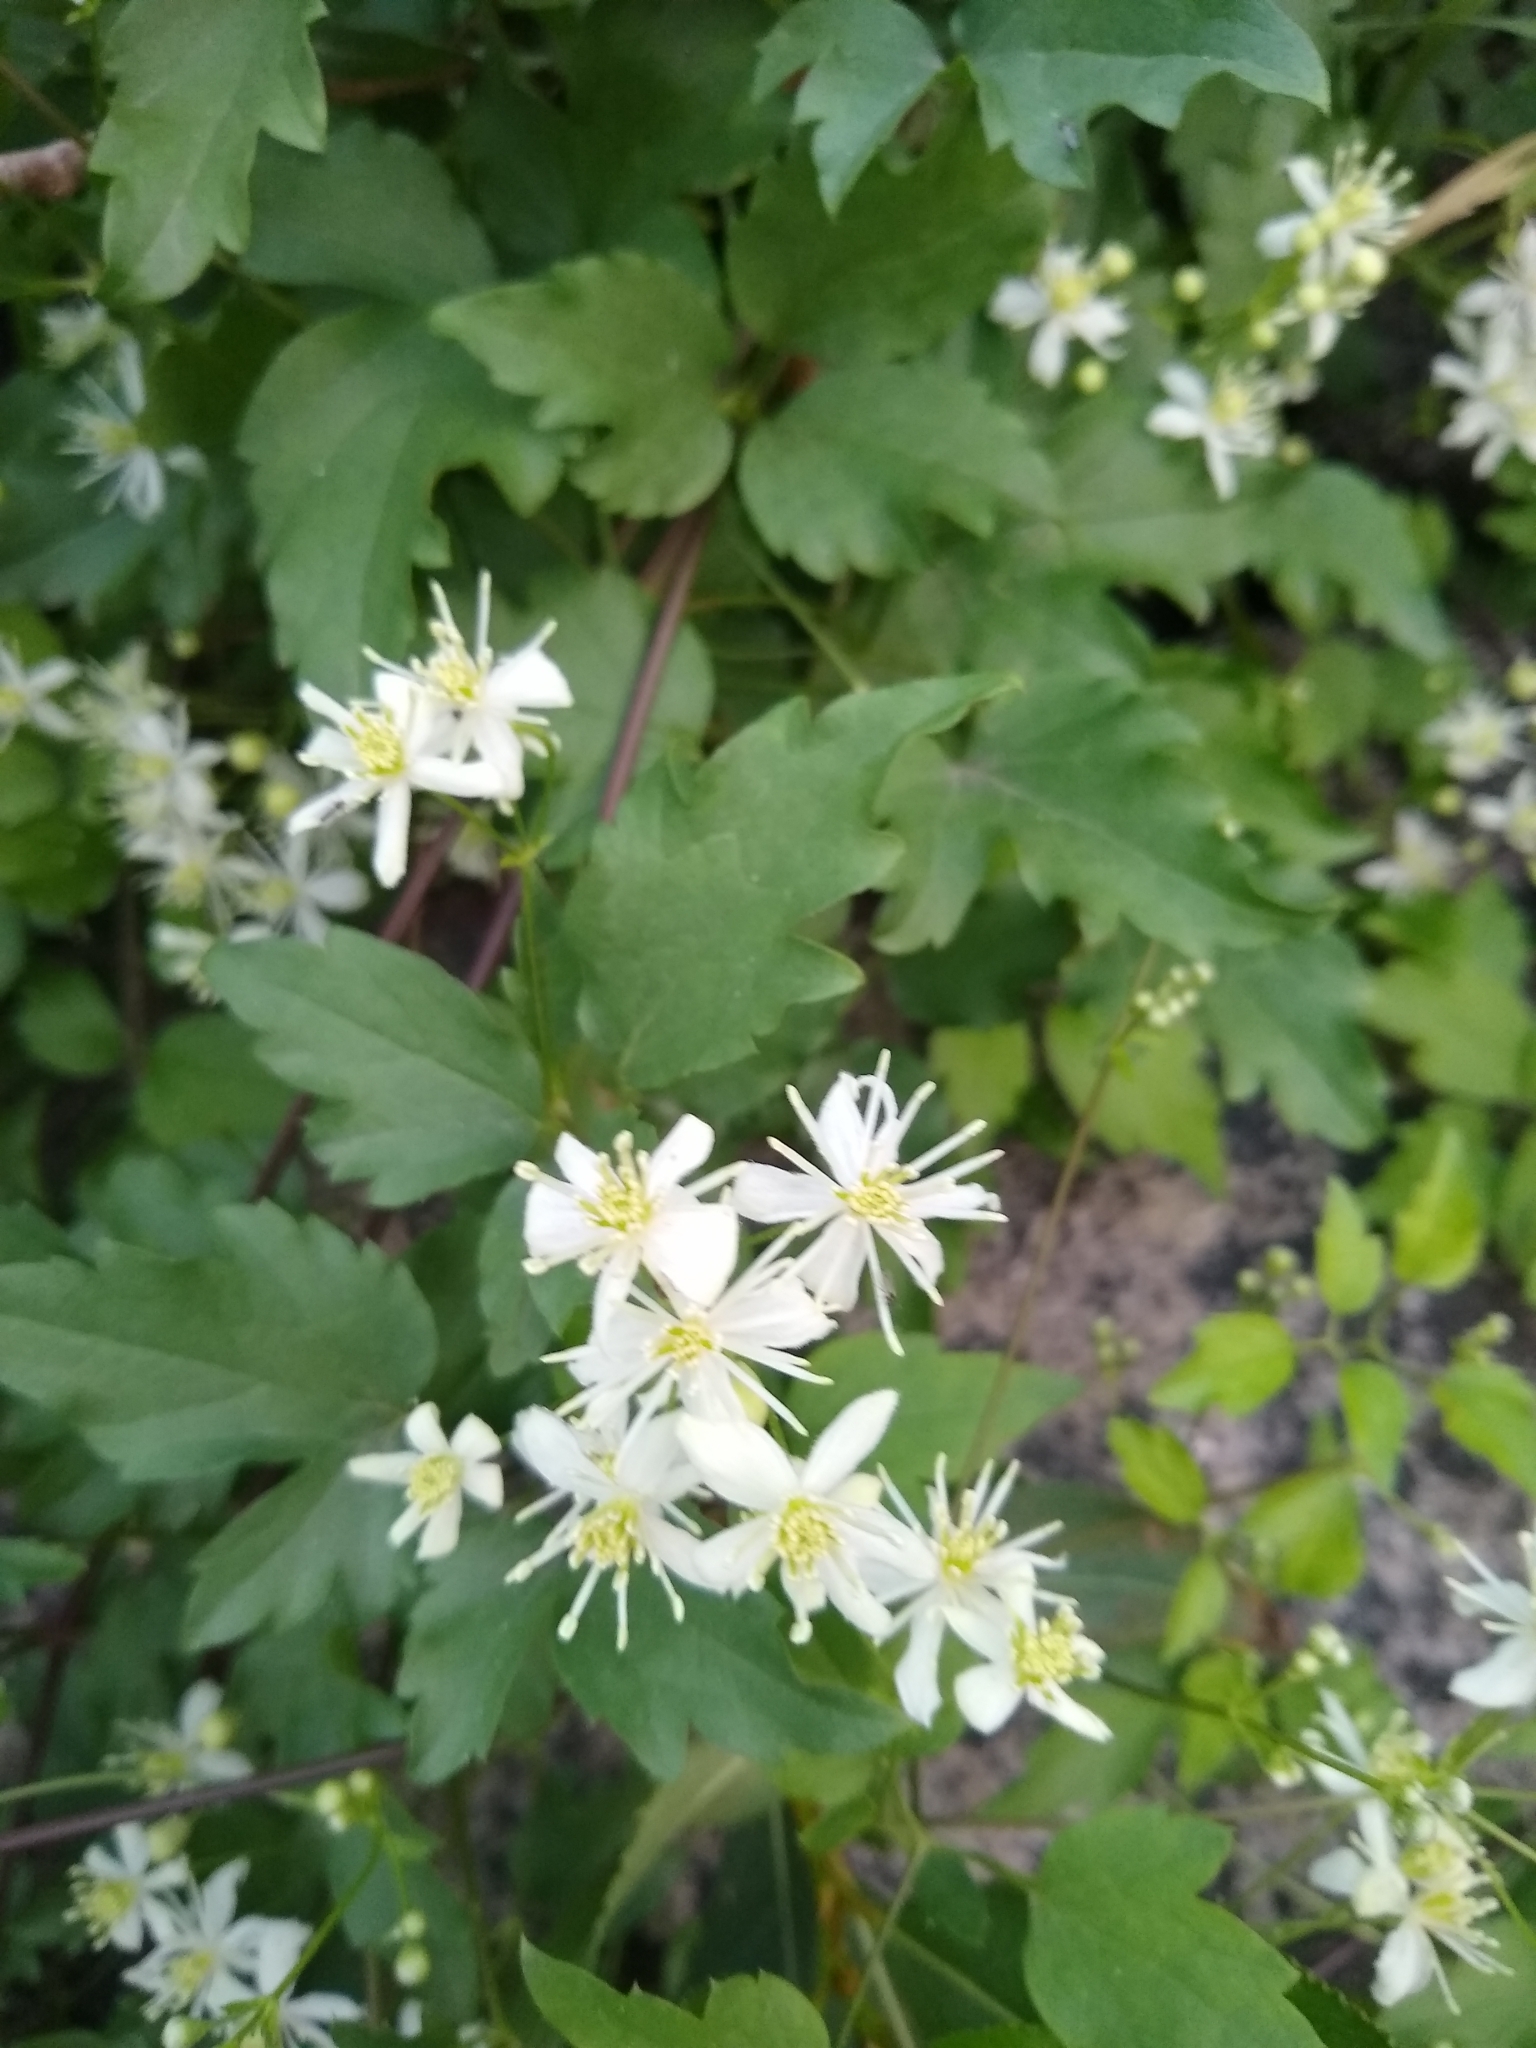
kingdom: Plantae
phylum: Tracheophyta
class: Magnoliopsida
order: Ranunculales
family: Ranunculaceae
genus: Clematis
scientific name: Clematis ligusticifolia
